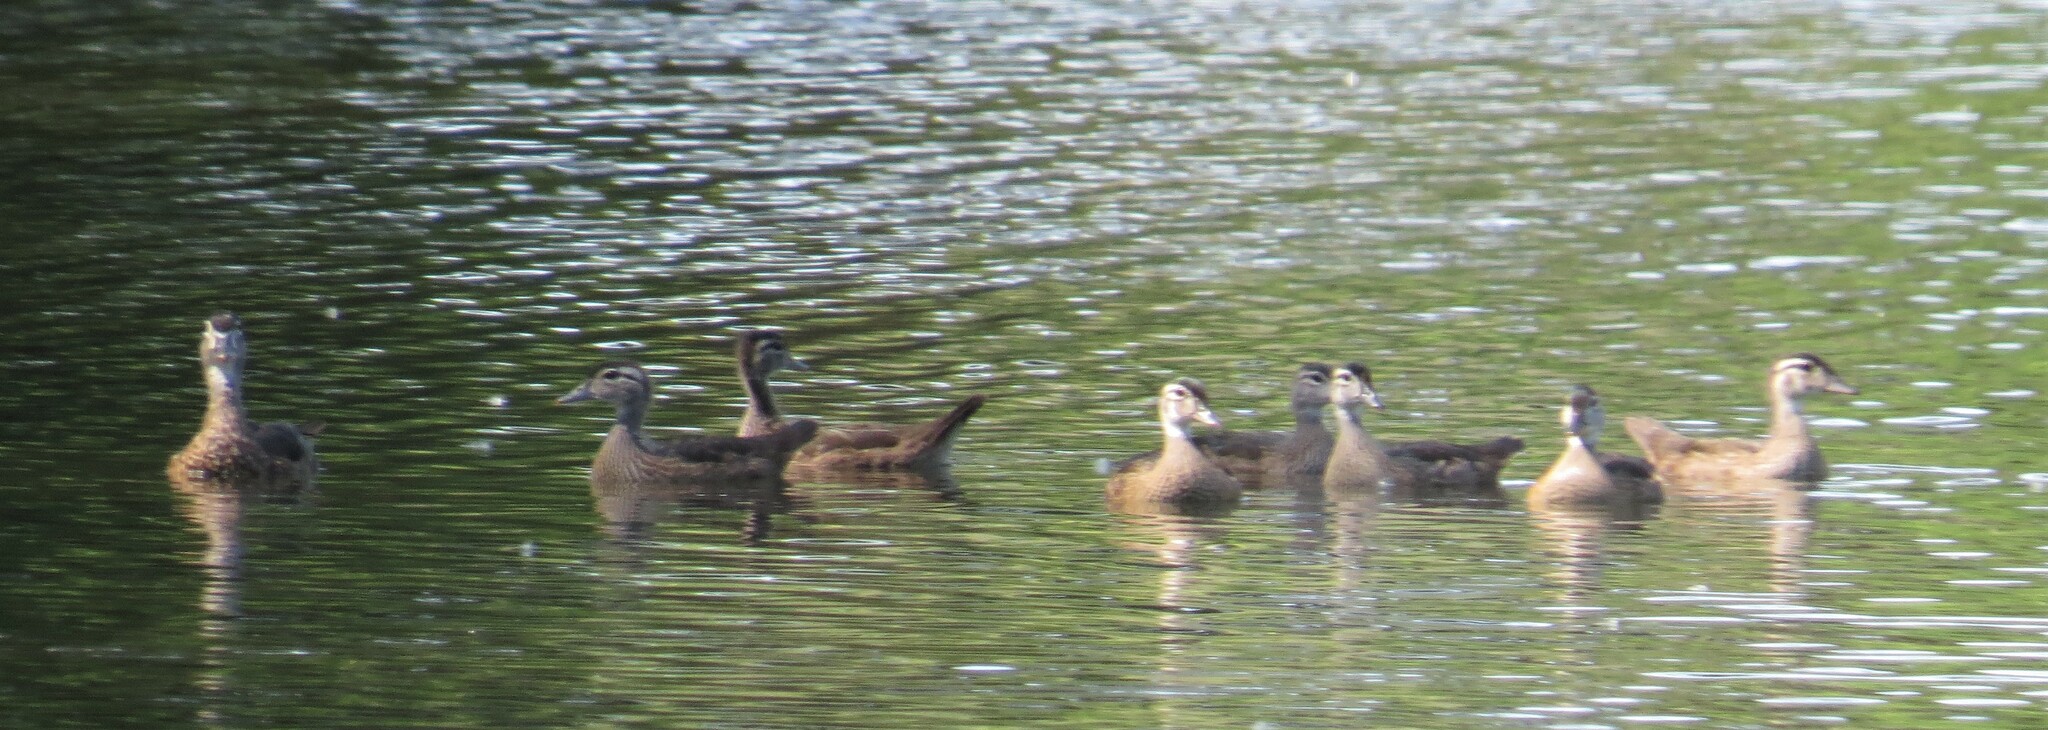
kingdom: Animalia
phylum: Chordata
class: Aves
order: Anseriformes
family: Anatidae
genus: Aix
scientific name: Aix sponsa
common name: Wood duck
